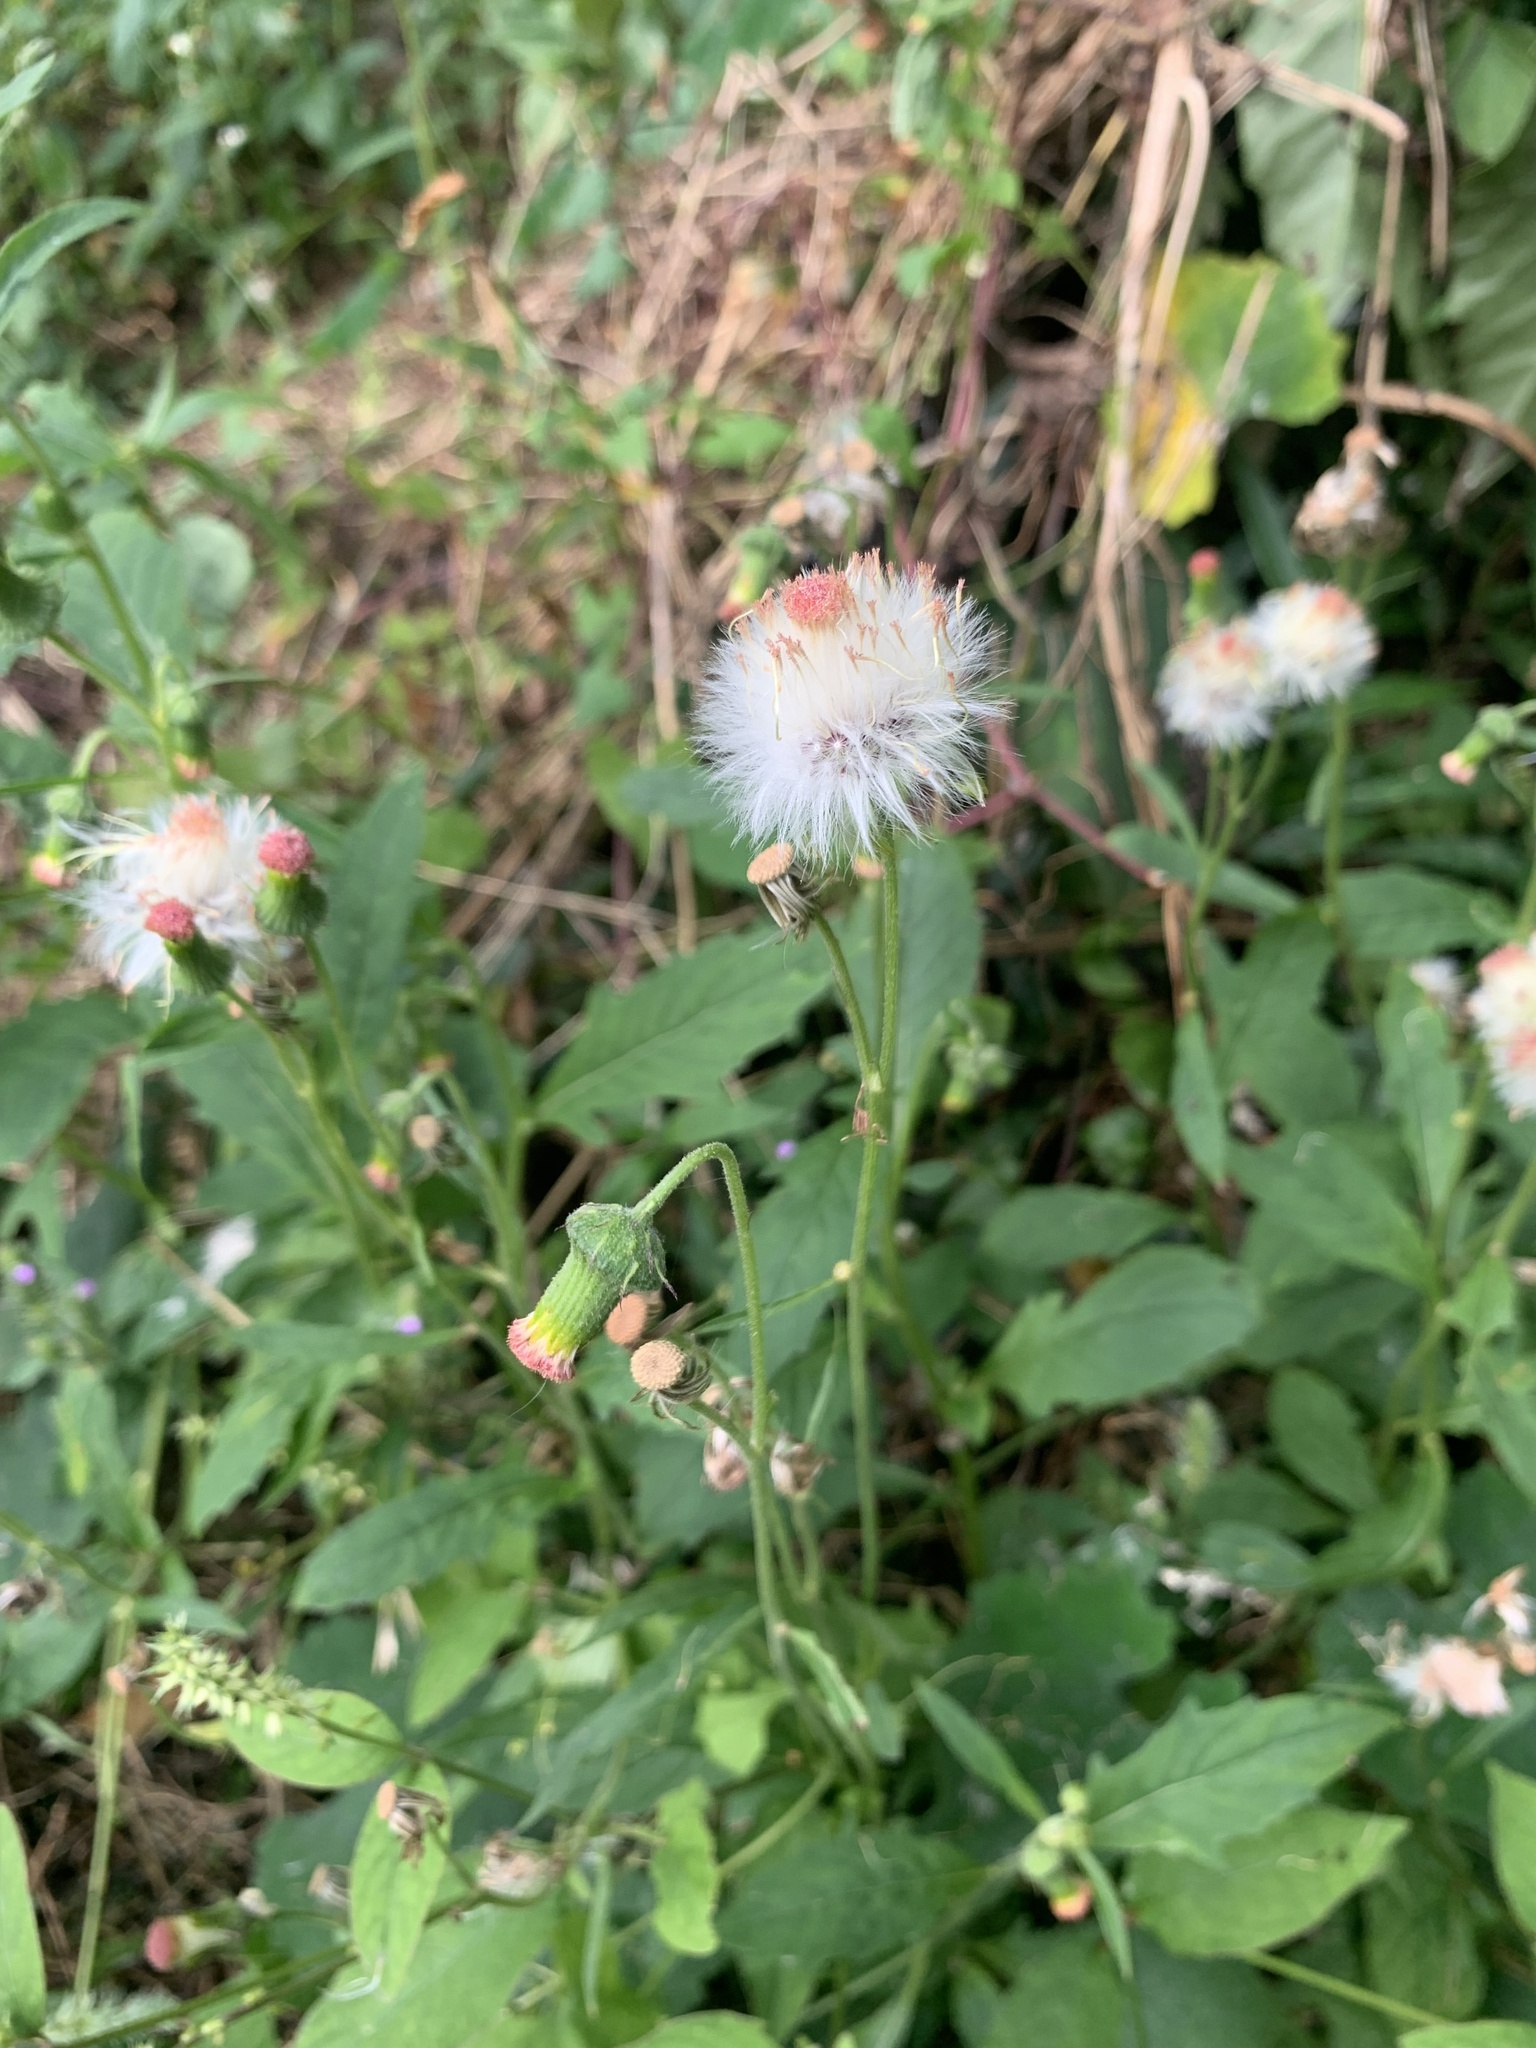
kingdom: Plantae
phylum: Tracheophyta
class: Magnoliopsida
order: Asterales
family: Asteraceae
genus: Crassocephalum
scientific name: Crassocephalum crepidioides
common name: Redflower ragleaf
